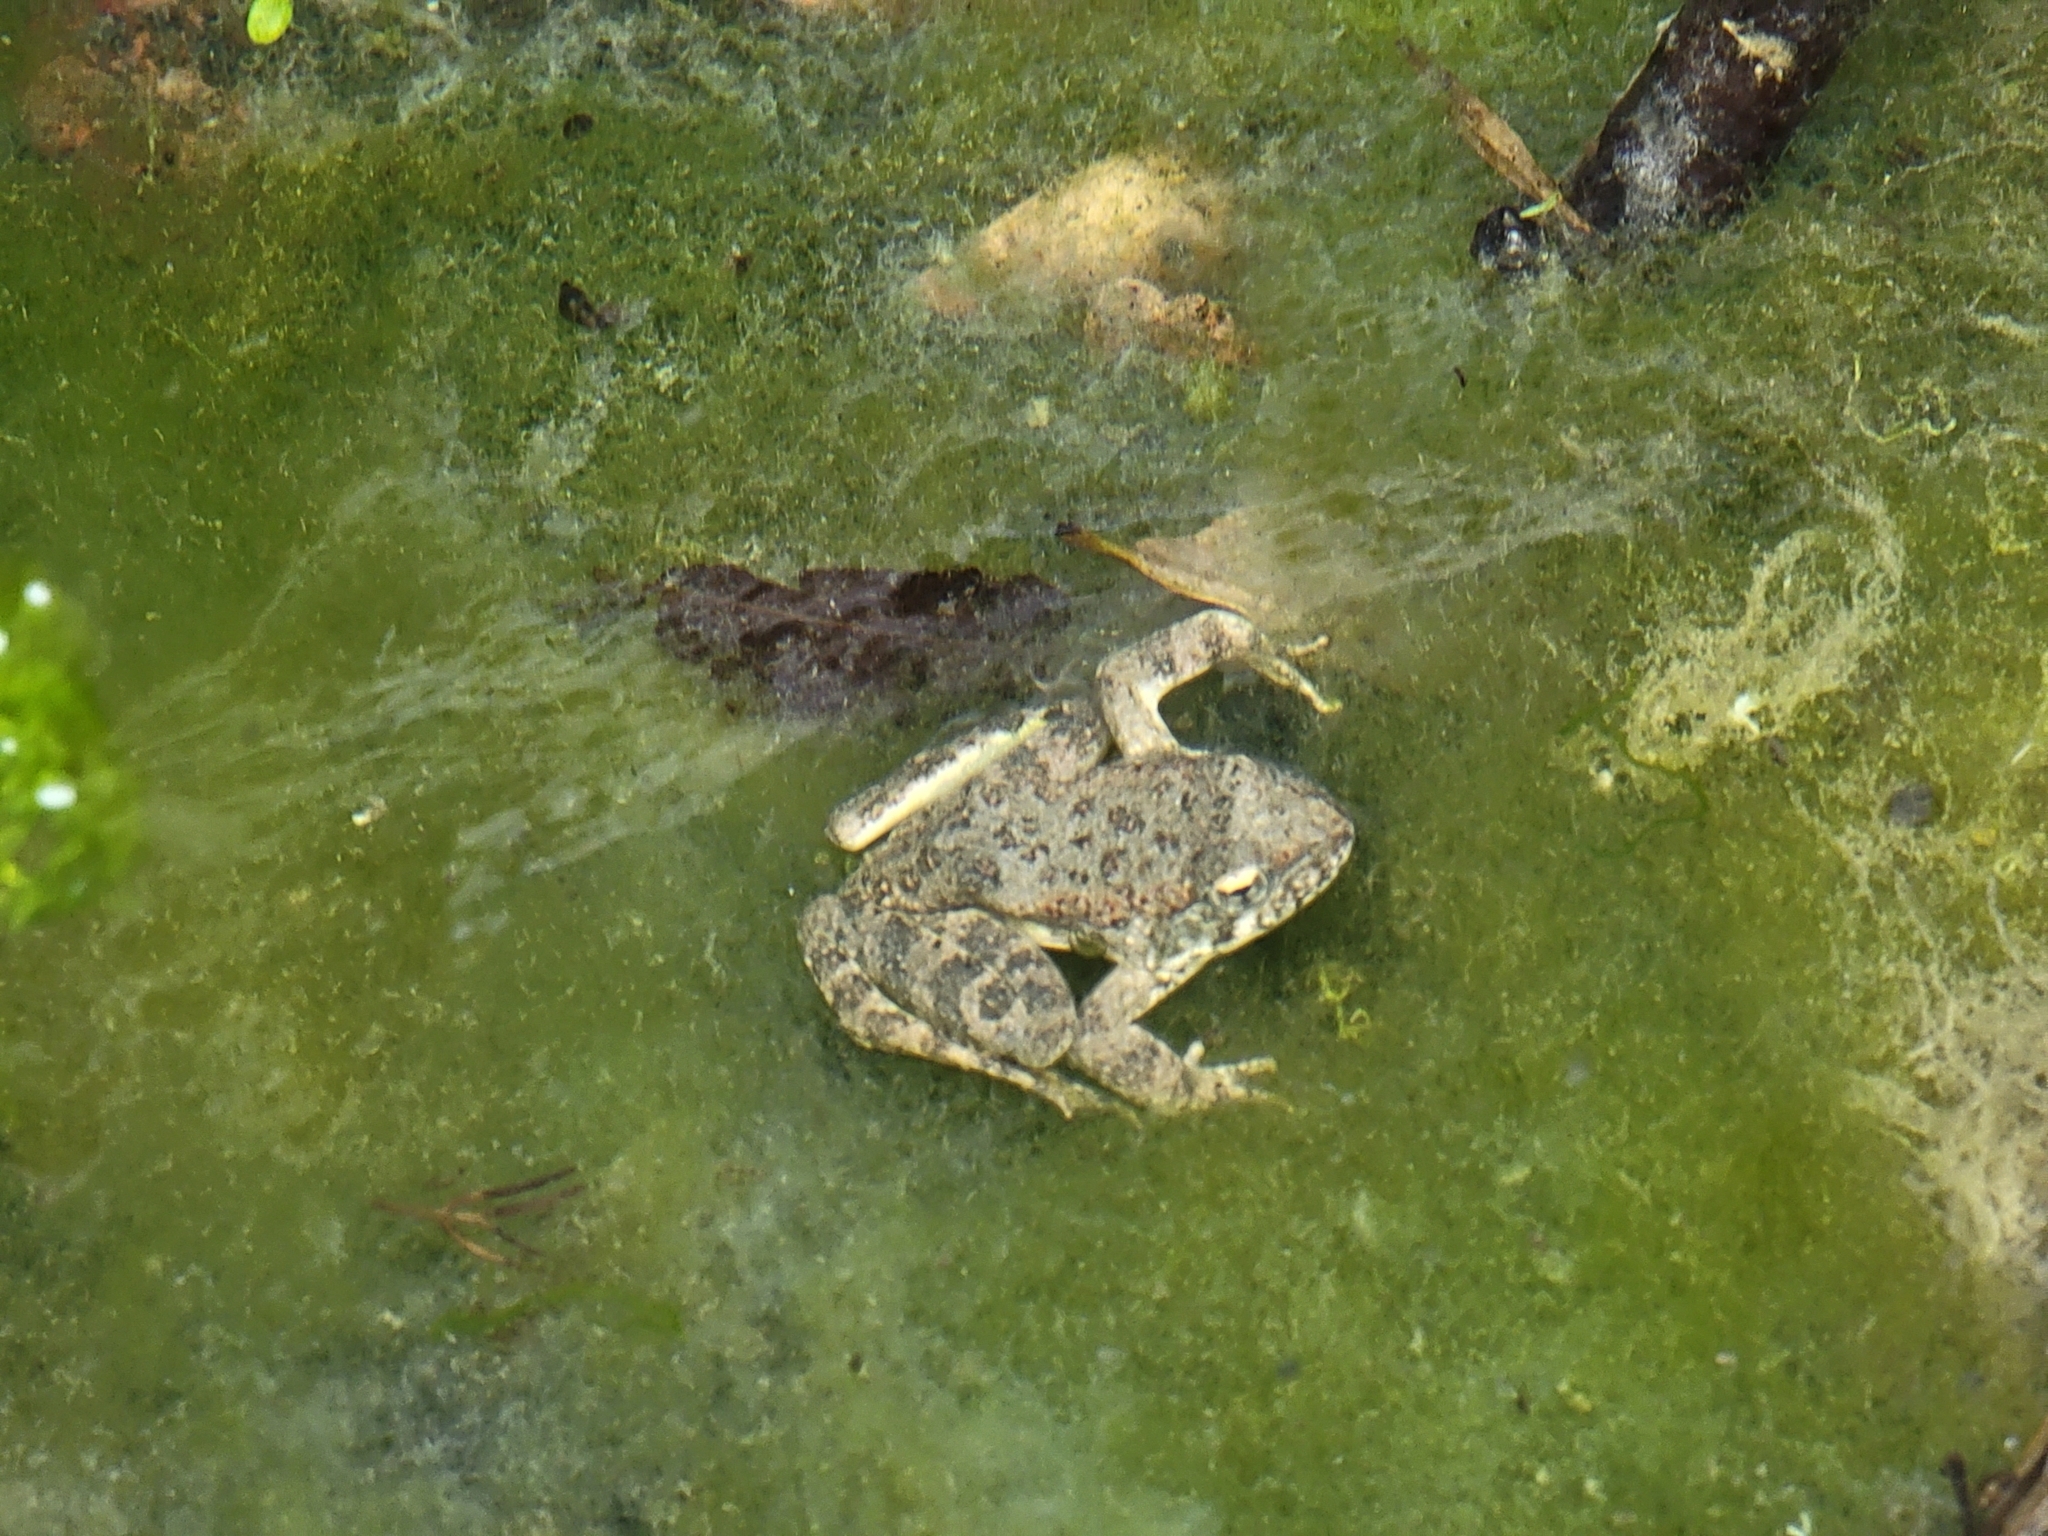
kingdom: Animalia
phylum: Chordata
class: Amphibia
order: Anura
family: Ranidae
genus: Rana
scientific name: Rana boylii
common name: Foothill yellow-legged frog
